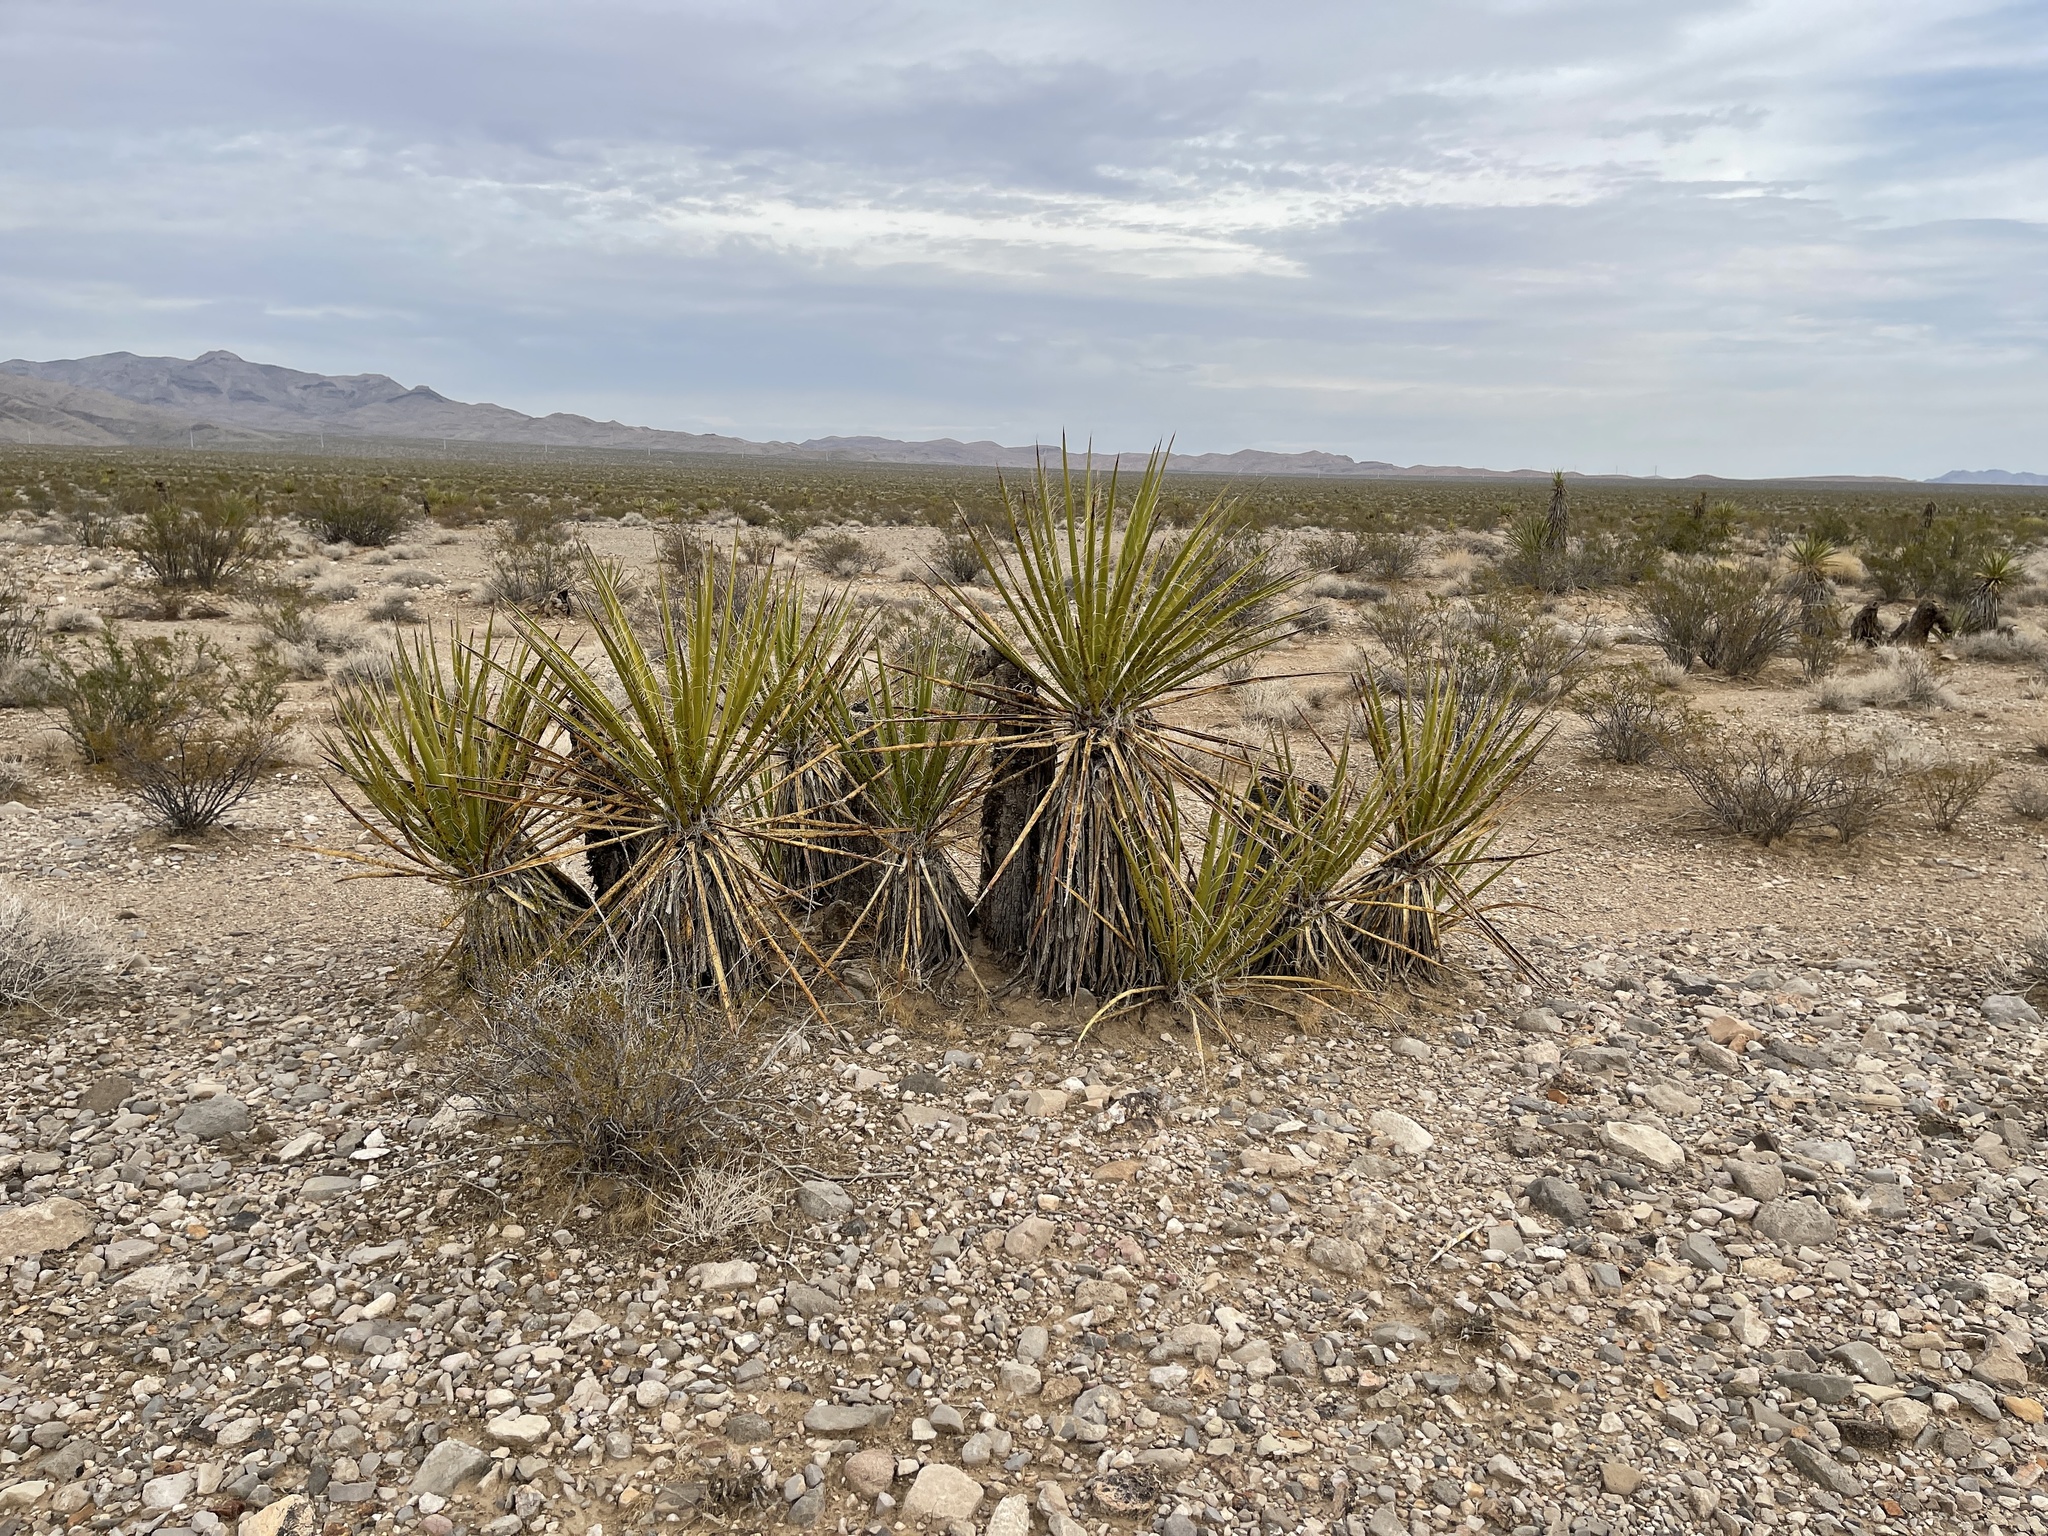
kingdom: Plantae
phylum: Tracheophyta
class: Liliopsida
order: Asparagales
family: Asparagaceae
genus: Yucca
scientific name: Yucca schidigera
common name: Mojave yucca
